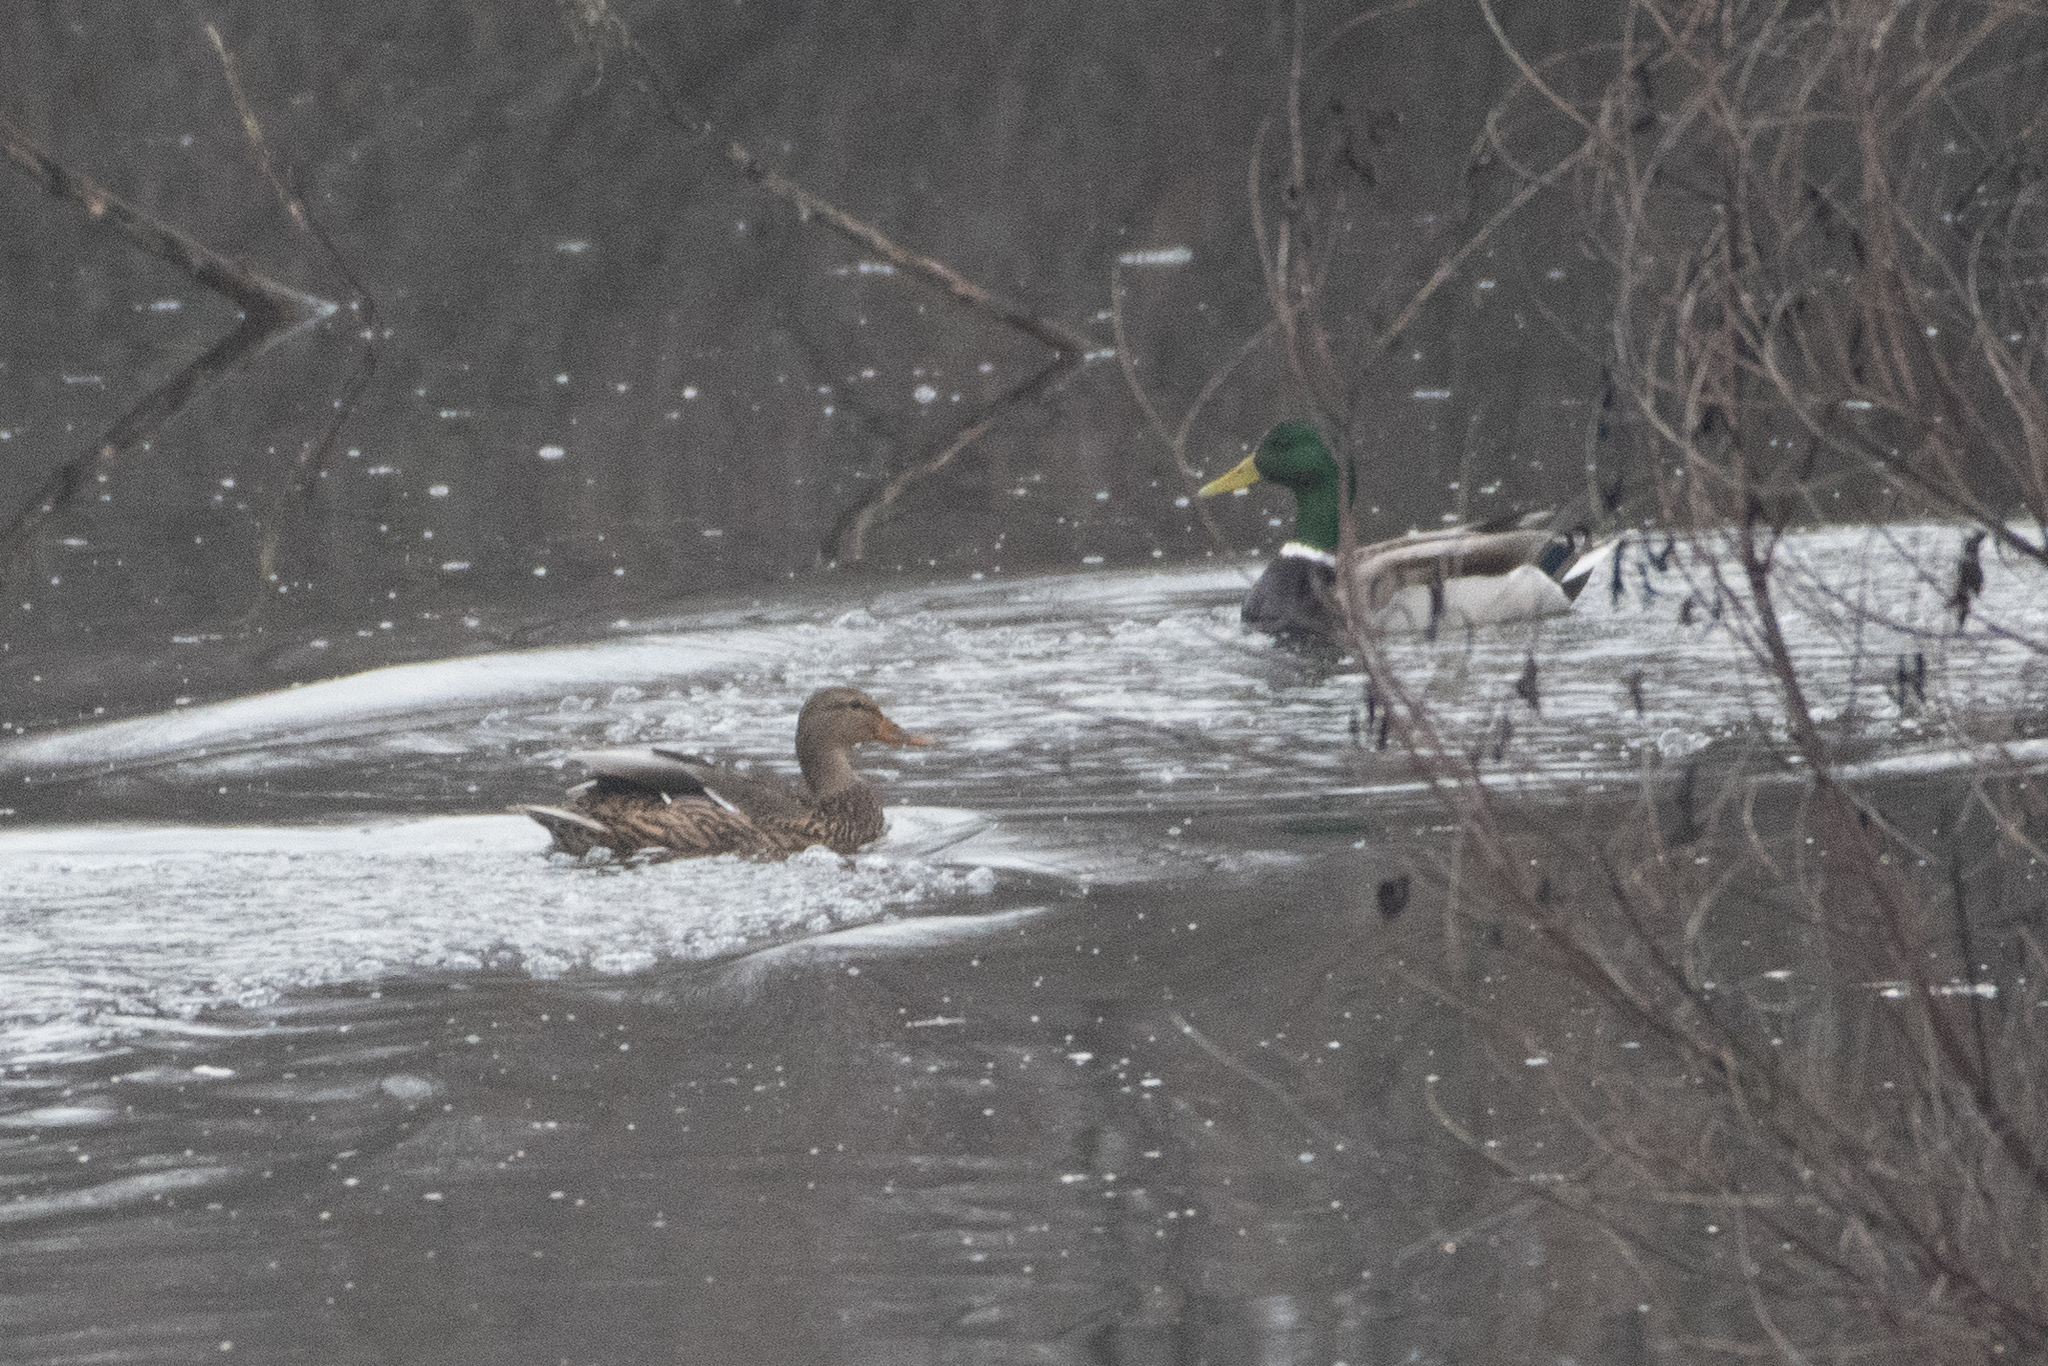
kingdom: Animalia
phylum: Chordata
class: Aves
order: Anseriformes
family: Anatidae
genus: Anas
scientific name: Anas platyrhynchos
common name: Mallard
